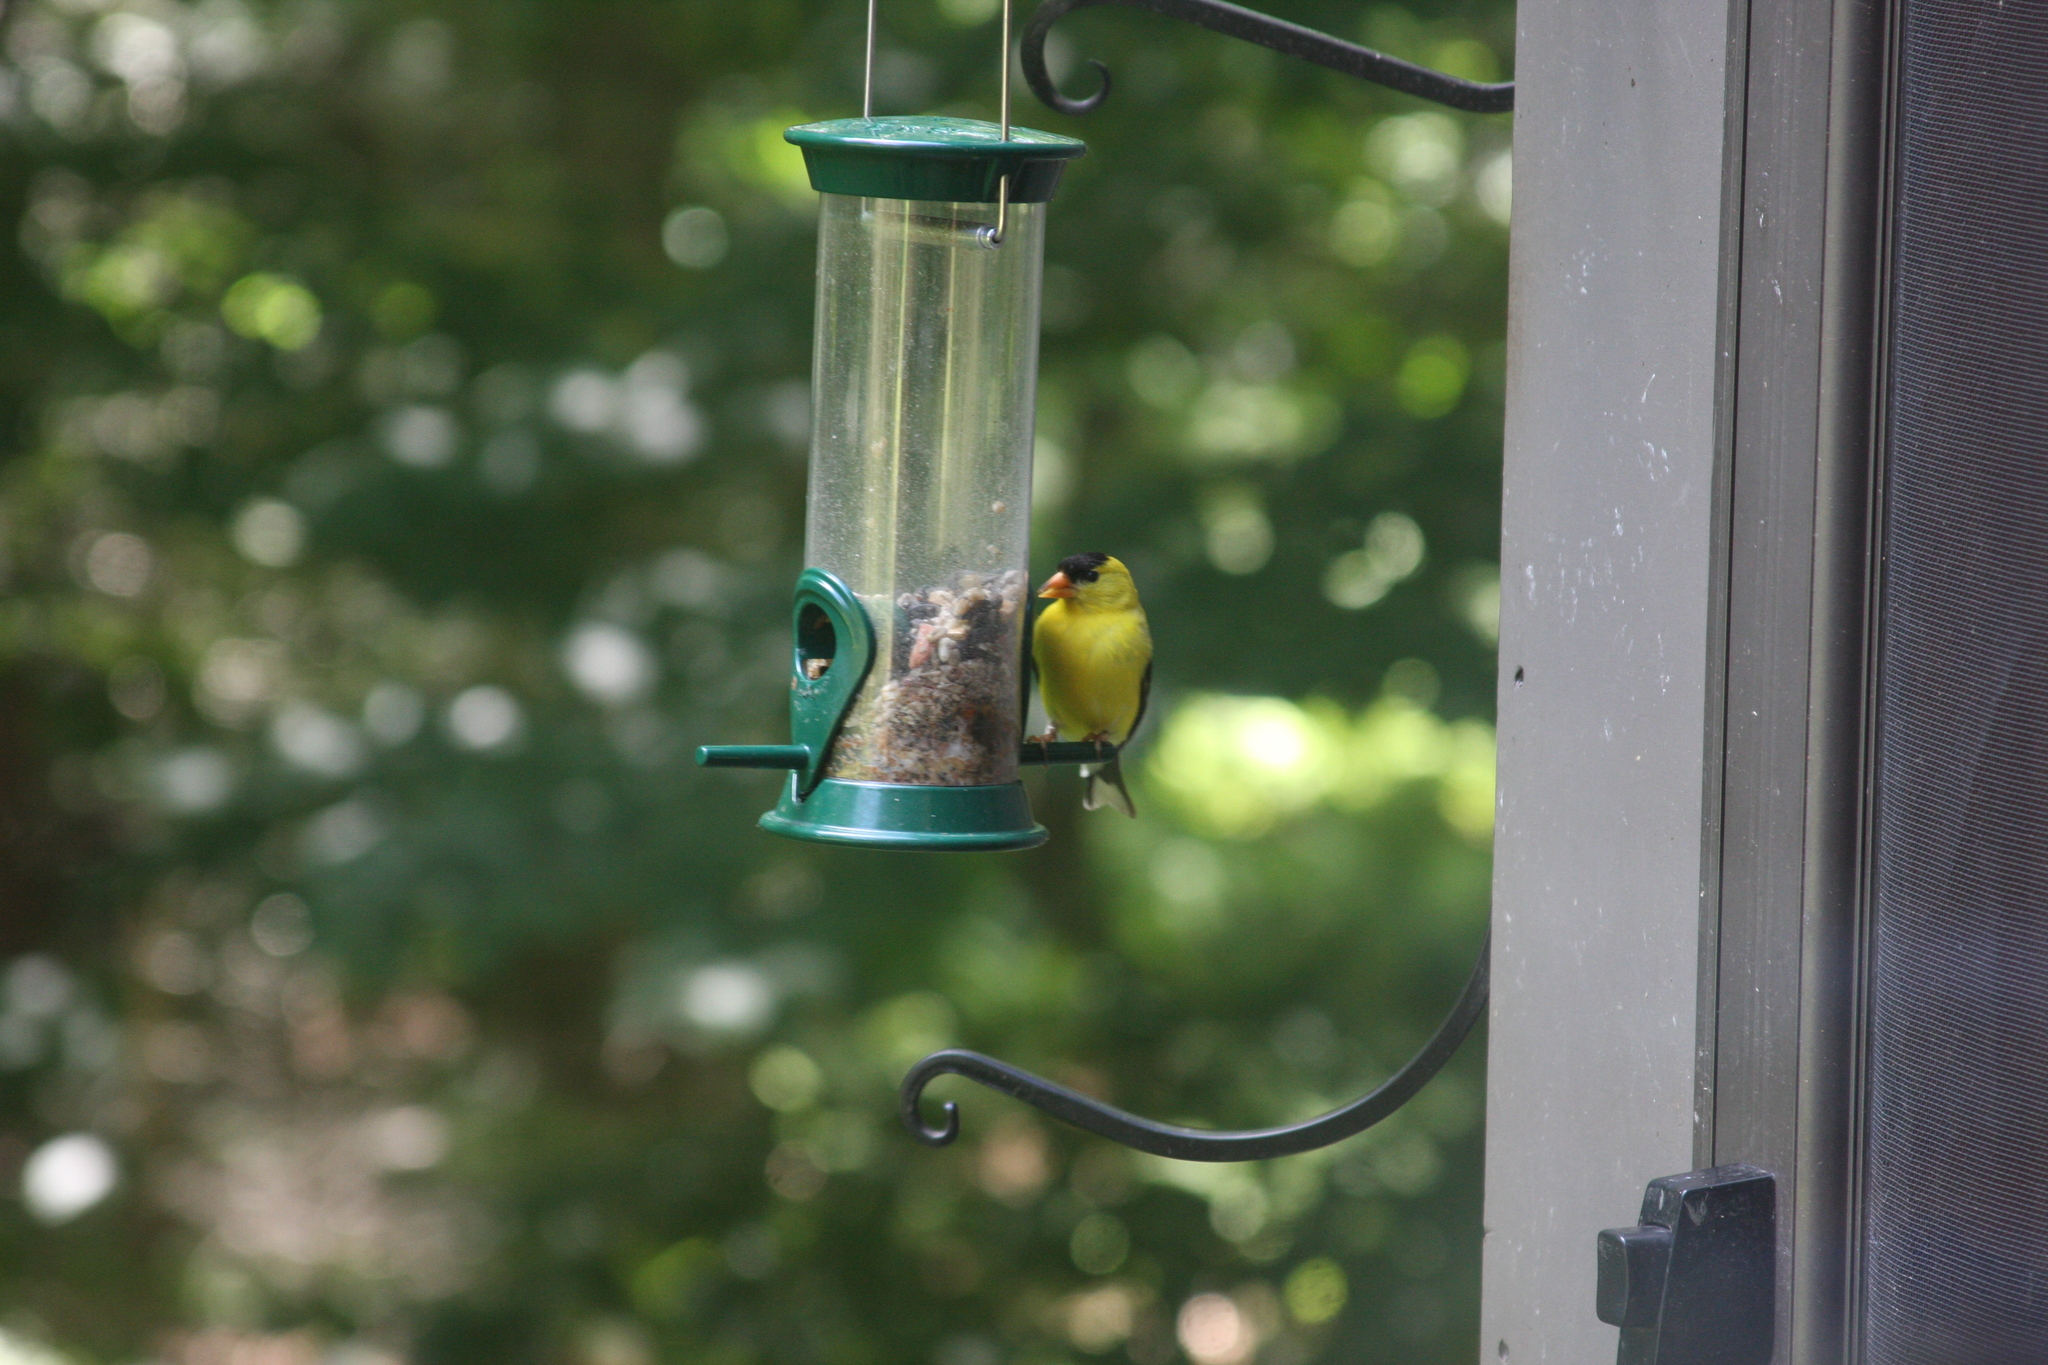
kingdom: Animalia
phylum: Chordata
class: Aves
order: Passeriformes
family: Fringillidae
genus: Spinus
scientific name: Spinus tristis
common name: American goldfinch
